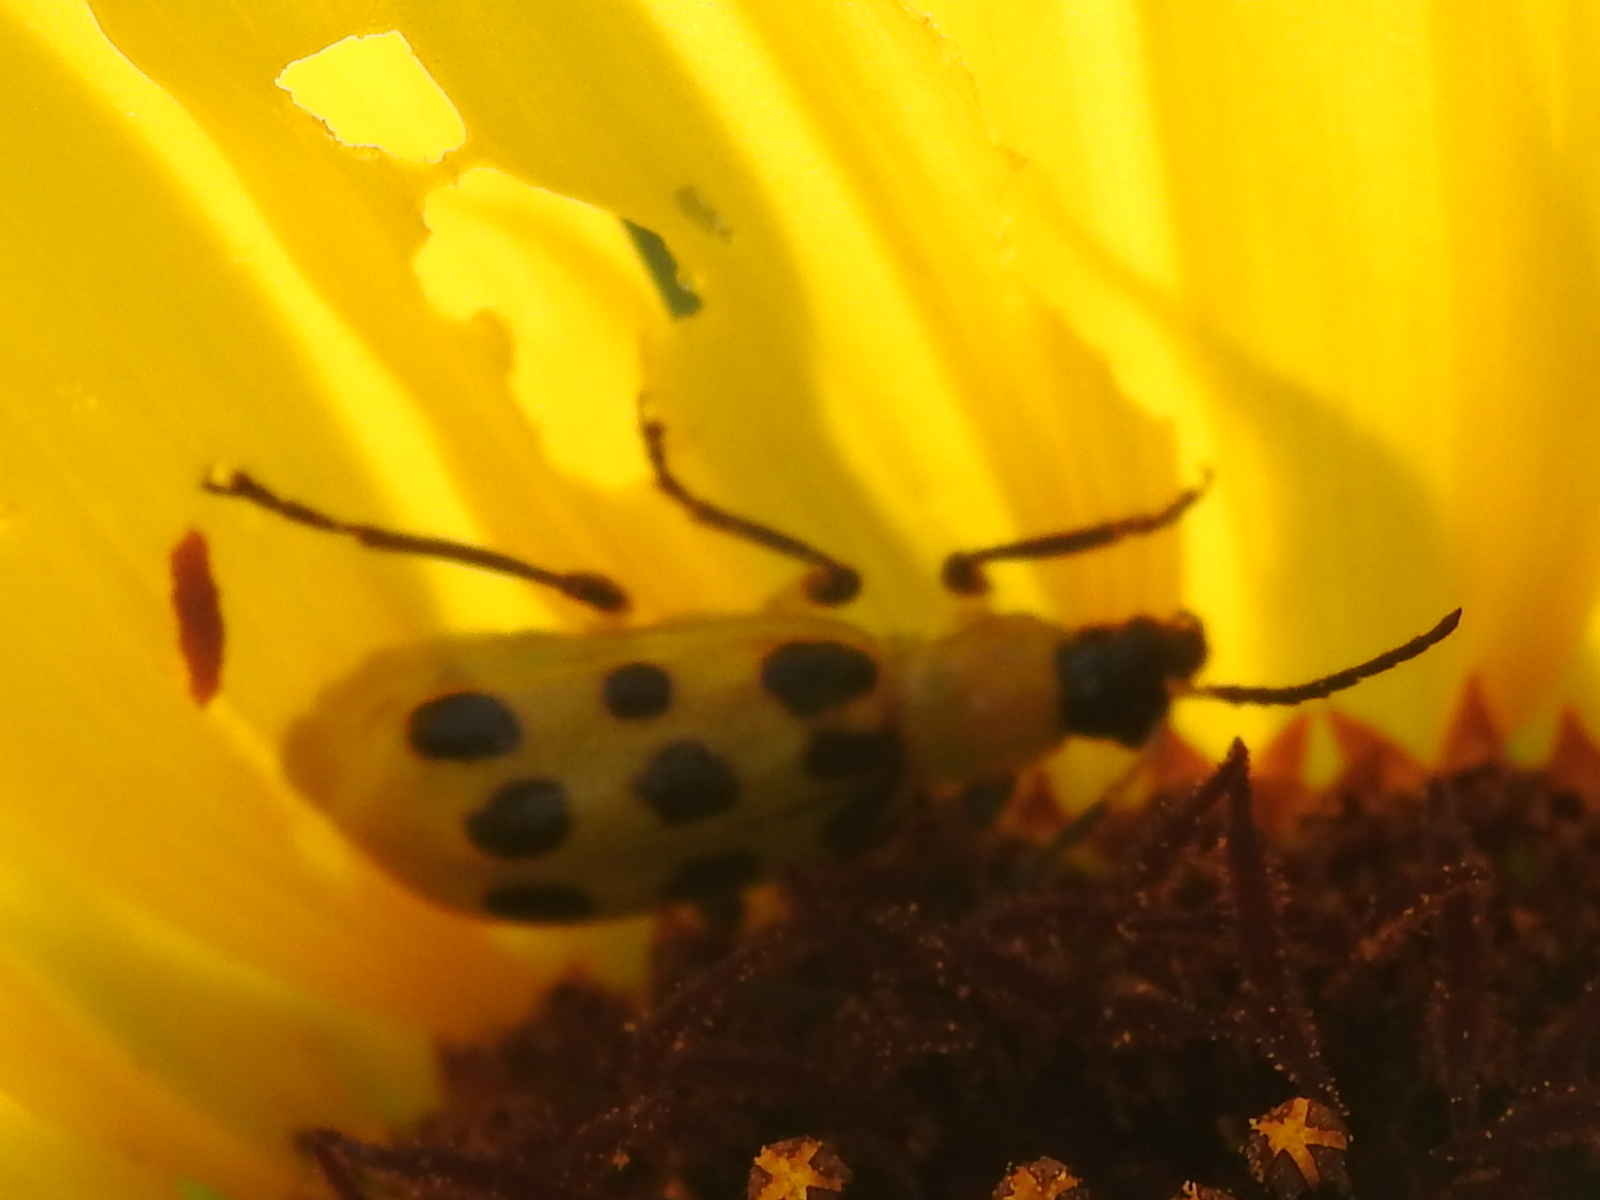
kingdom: Animalia
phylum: Arthropoda
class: Insecta
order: Coleoptera
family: Chrysomelidae
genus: Diabrotica
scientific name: Diabrotica undecimpunctata
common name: Spotted cucumber beetle
